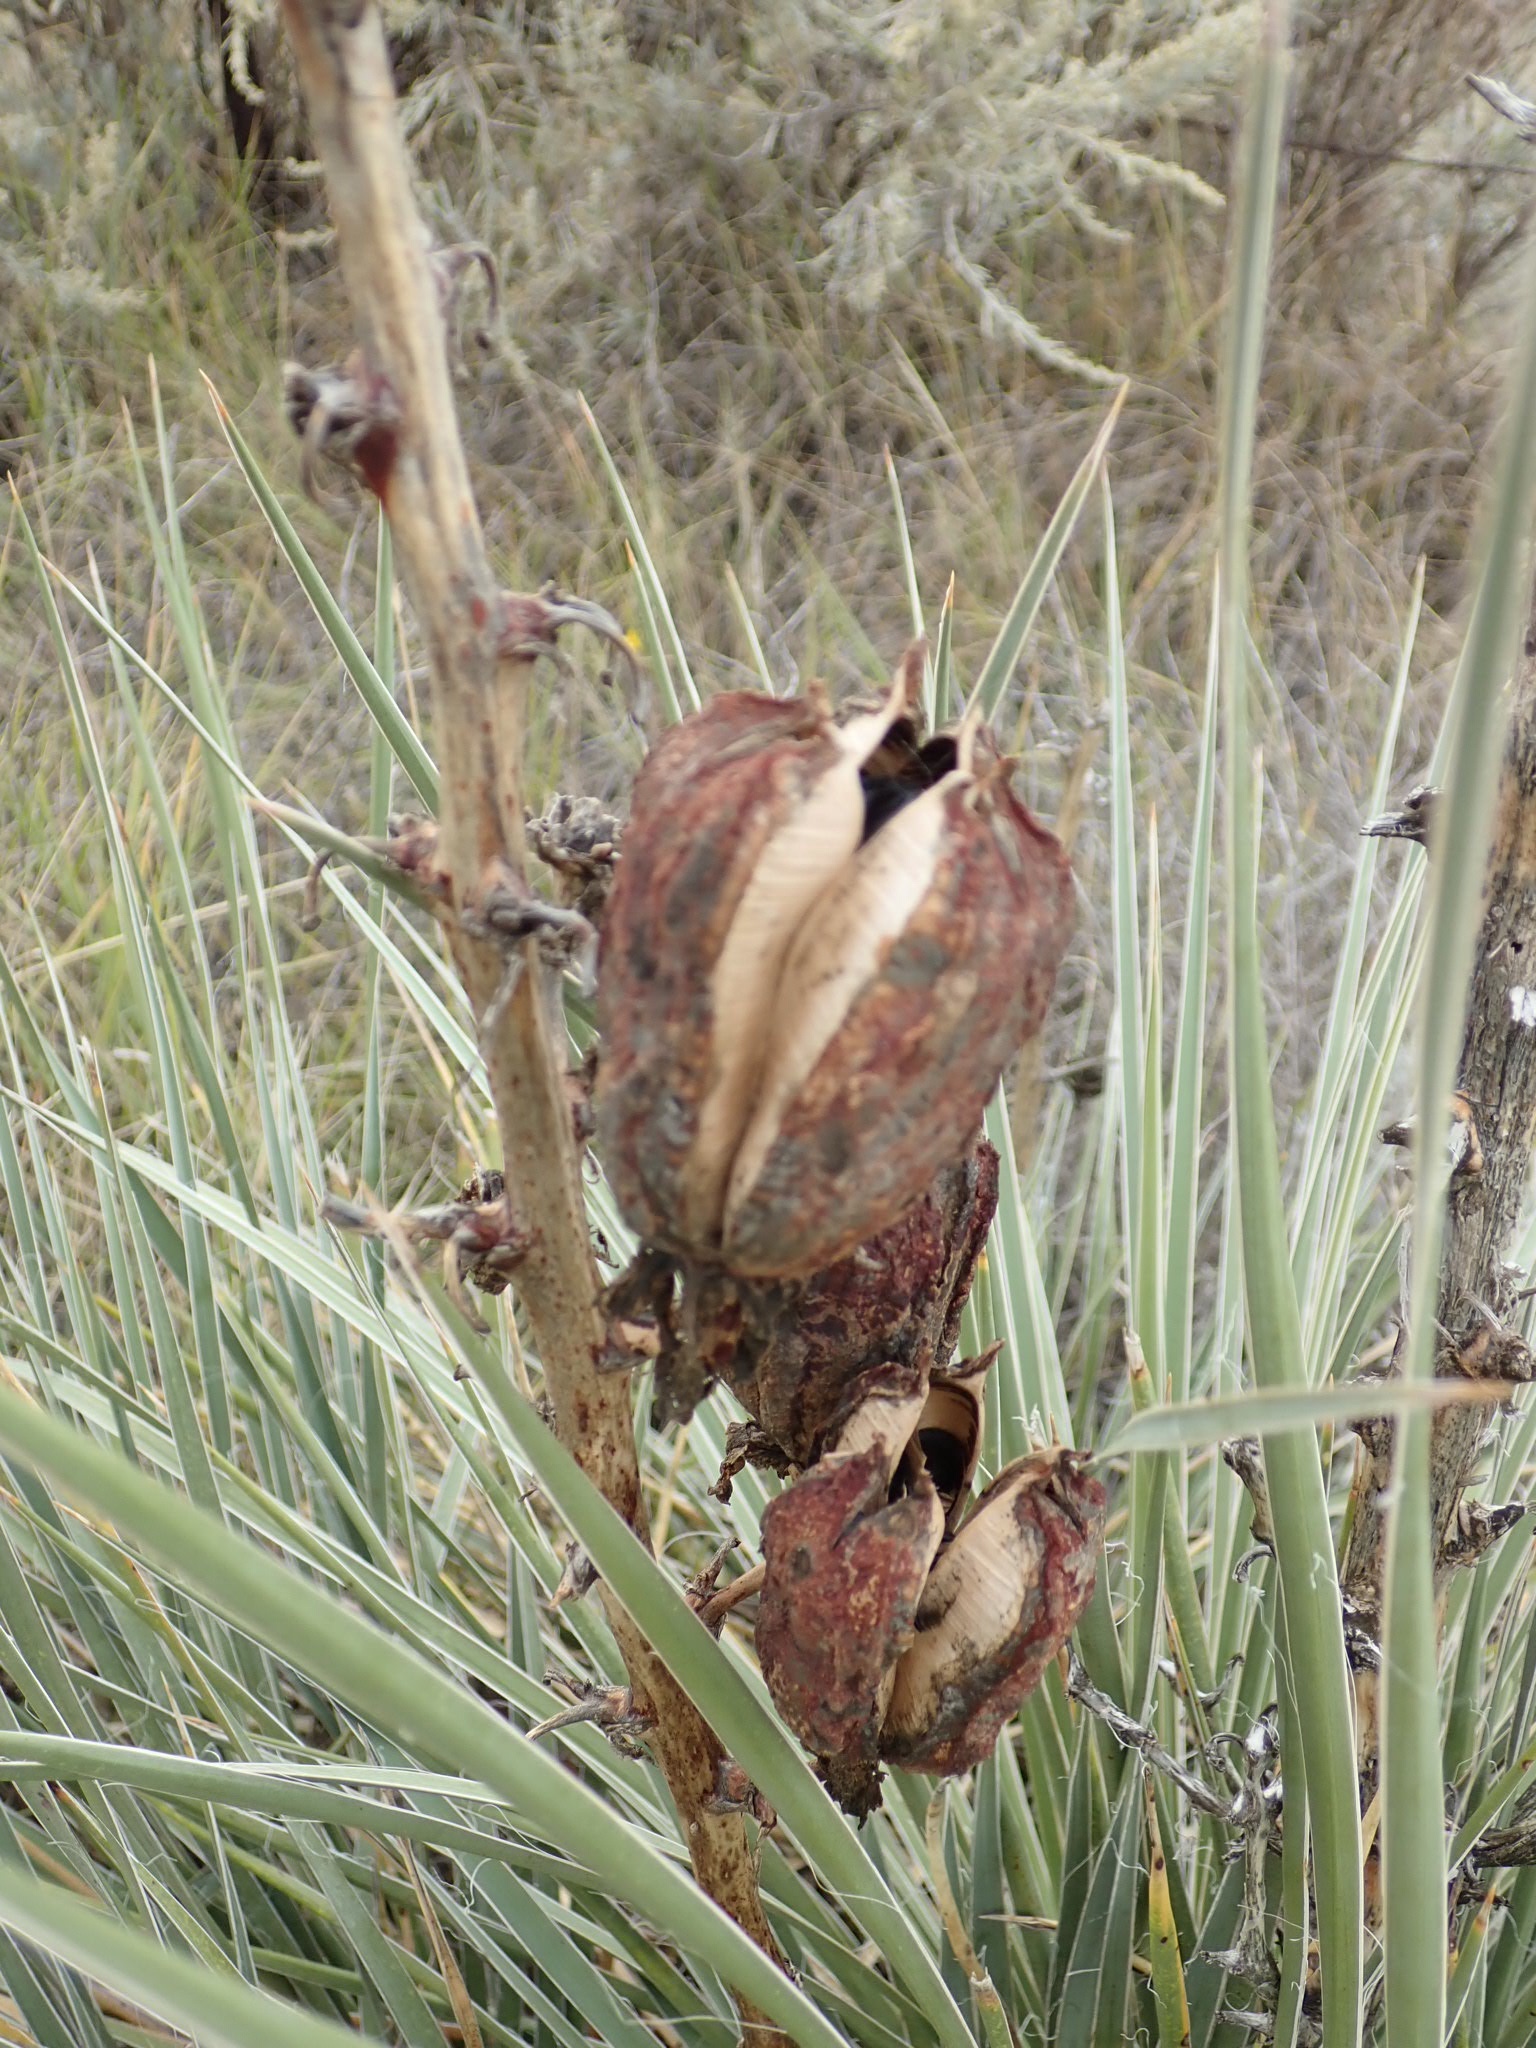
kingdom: Plantae
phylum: Tracheophyta
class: Liliopsida
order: Asparagales
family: Asparagaceae
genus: Yucca
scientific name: Yucca glauca
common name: Great plains yucca
